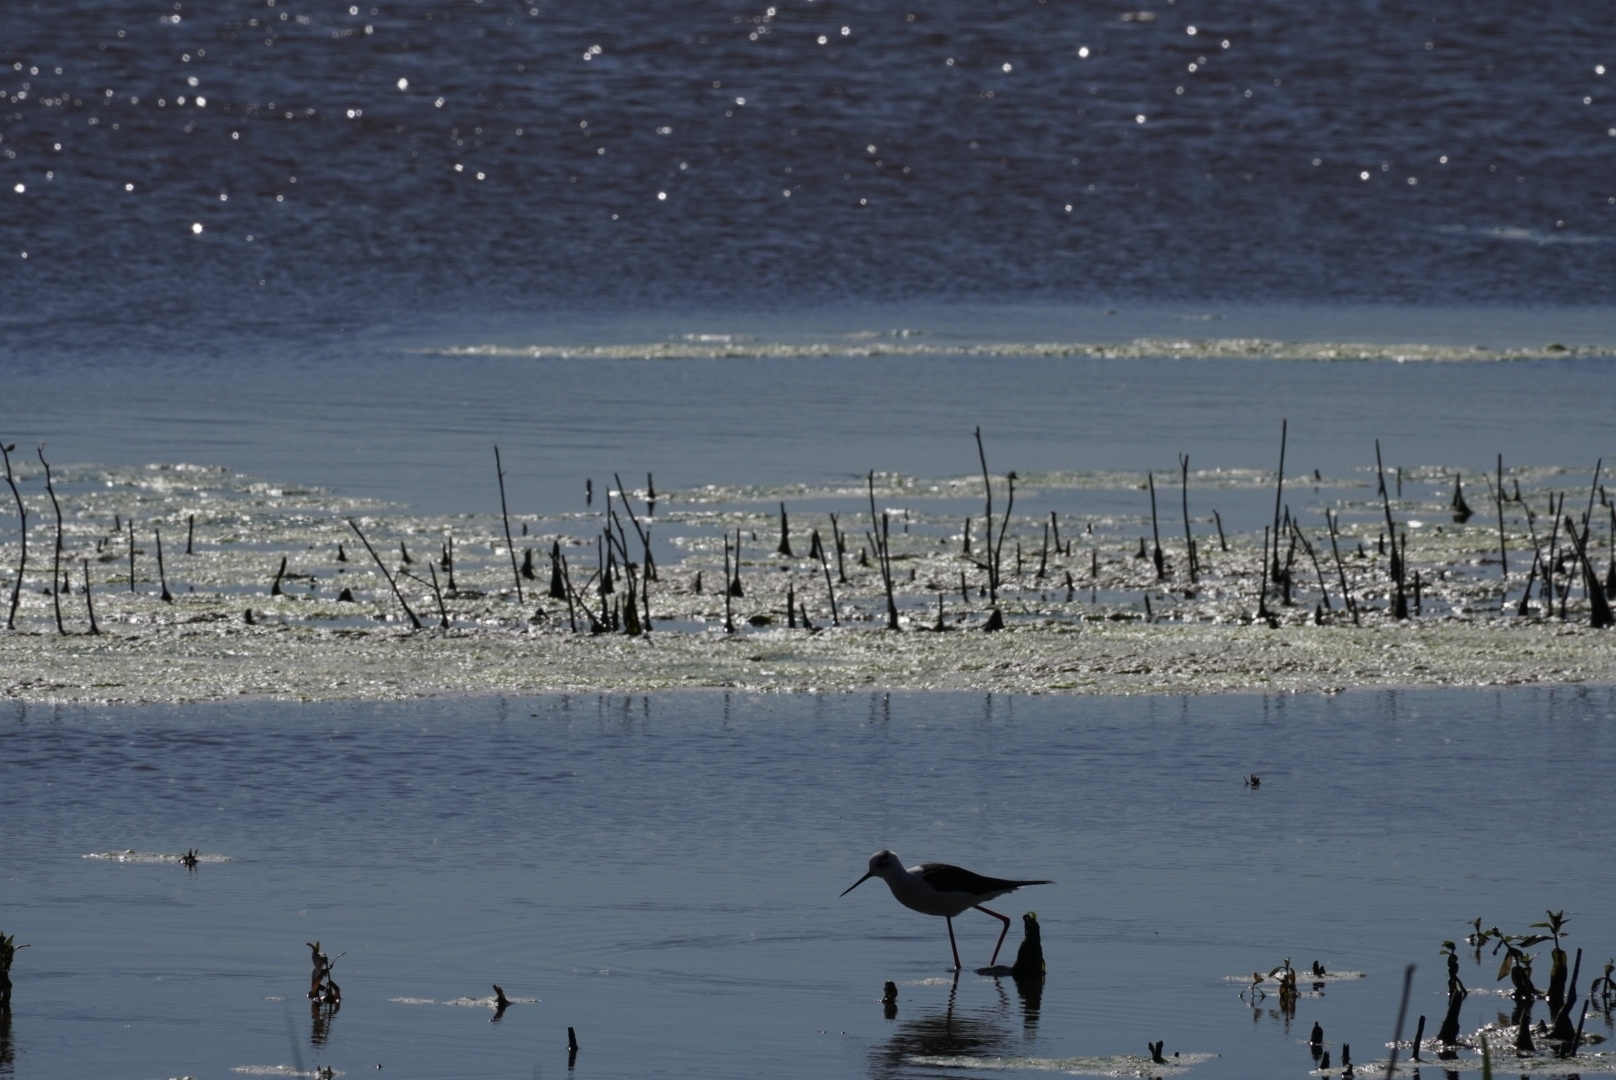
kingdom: Animalia
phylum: Chordata
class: Aves
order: Charadriiformes
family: Recurvirostridae
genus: Himantopus
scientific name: Himantopus himantopus
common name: Black-winged stilt
